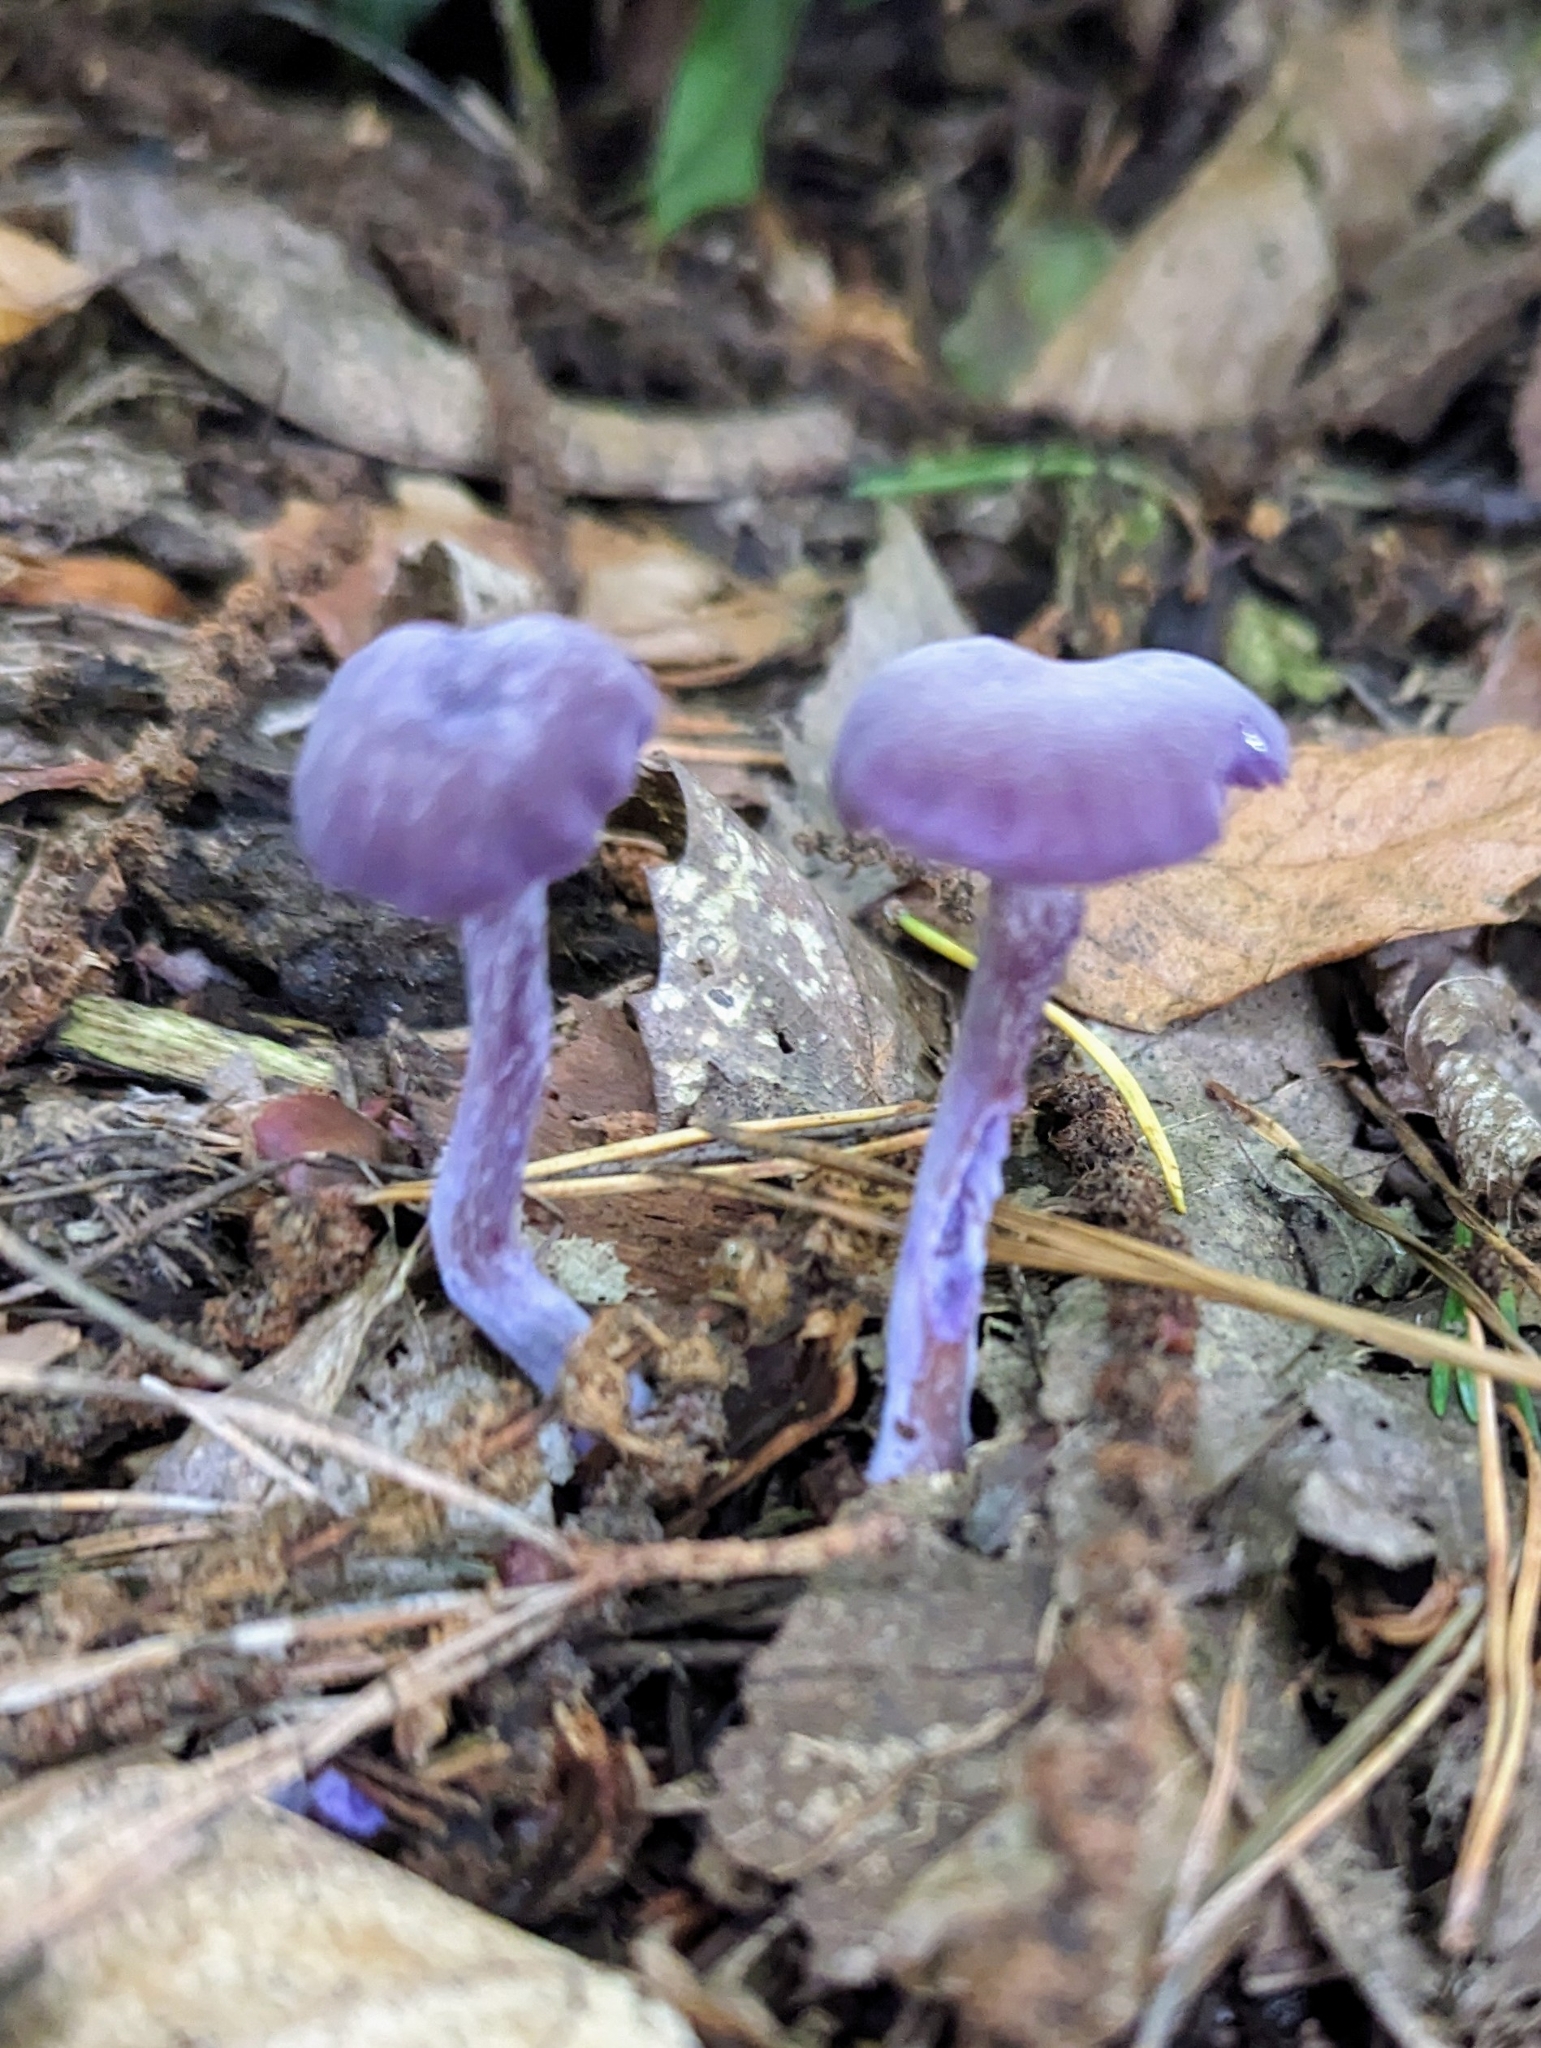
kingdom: Fungi
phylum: Basidiomycota
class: Agaricomycetes
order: Agaricales
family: Hydnangiaceae
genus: Laccaria
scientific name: Laccaria amethystina
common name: Amethyst deceiver
